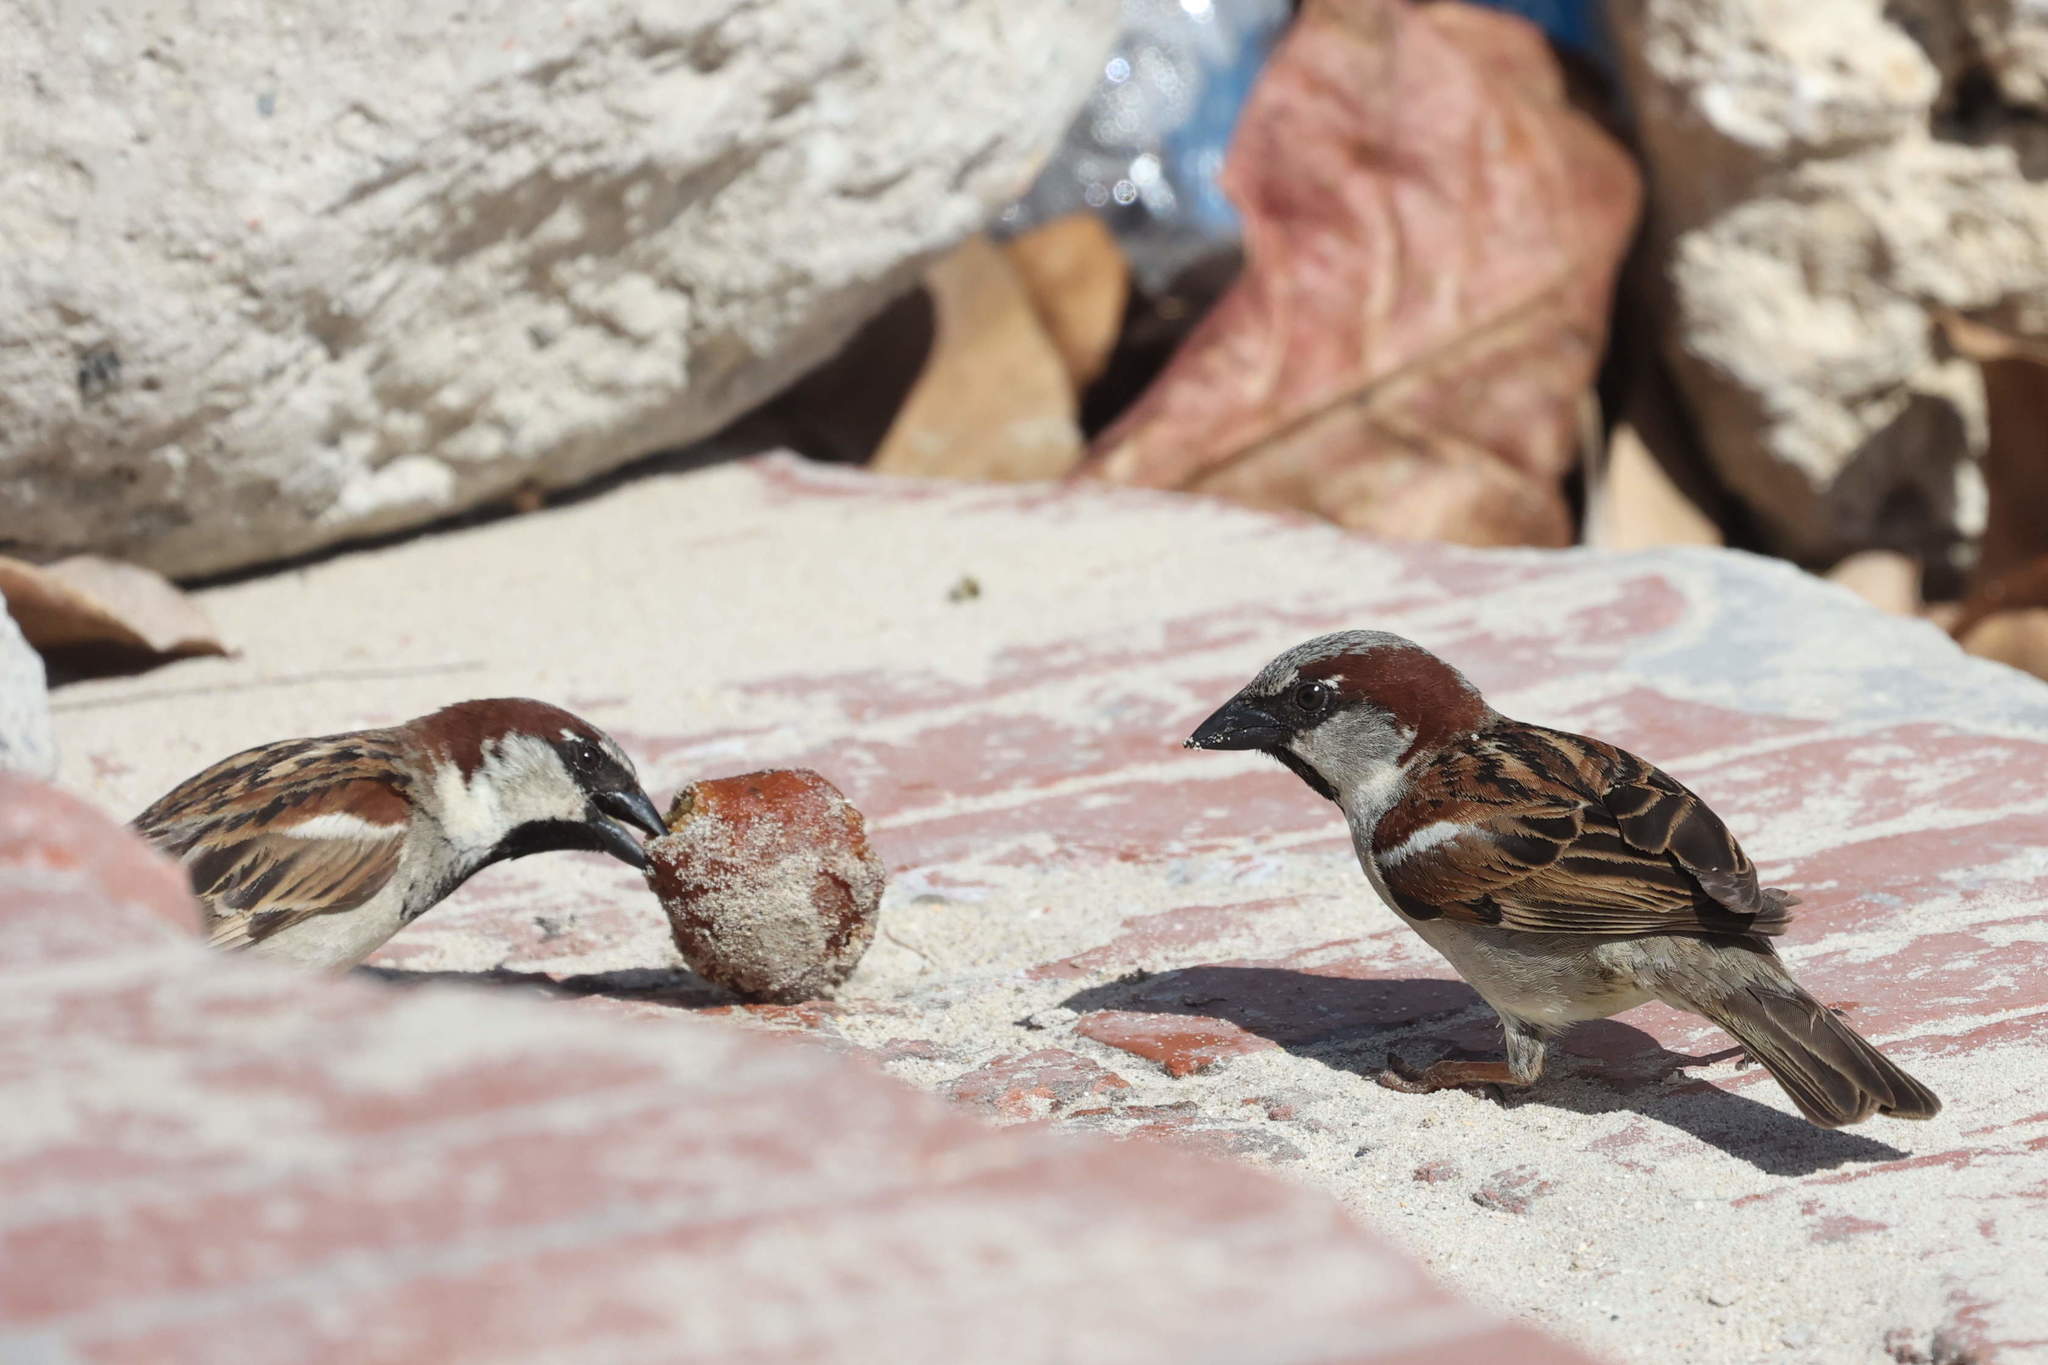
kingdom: Animalia
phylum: Chordata
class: Aves
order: Passeriformes
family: Passeridae
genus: Passer
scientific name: Passer domesticus
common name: House sparrow
